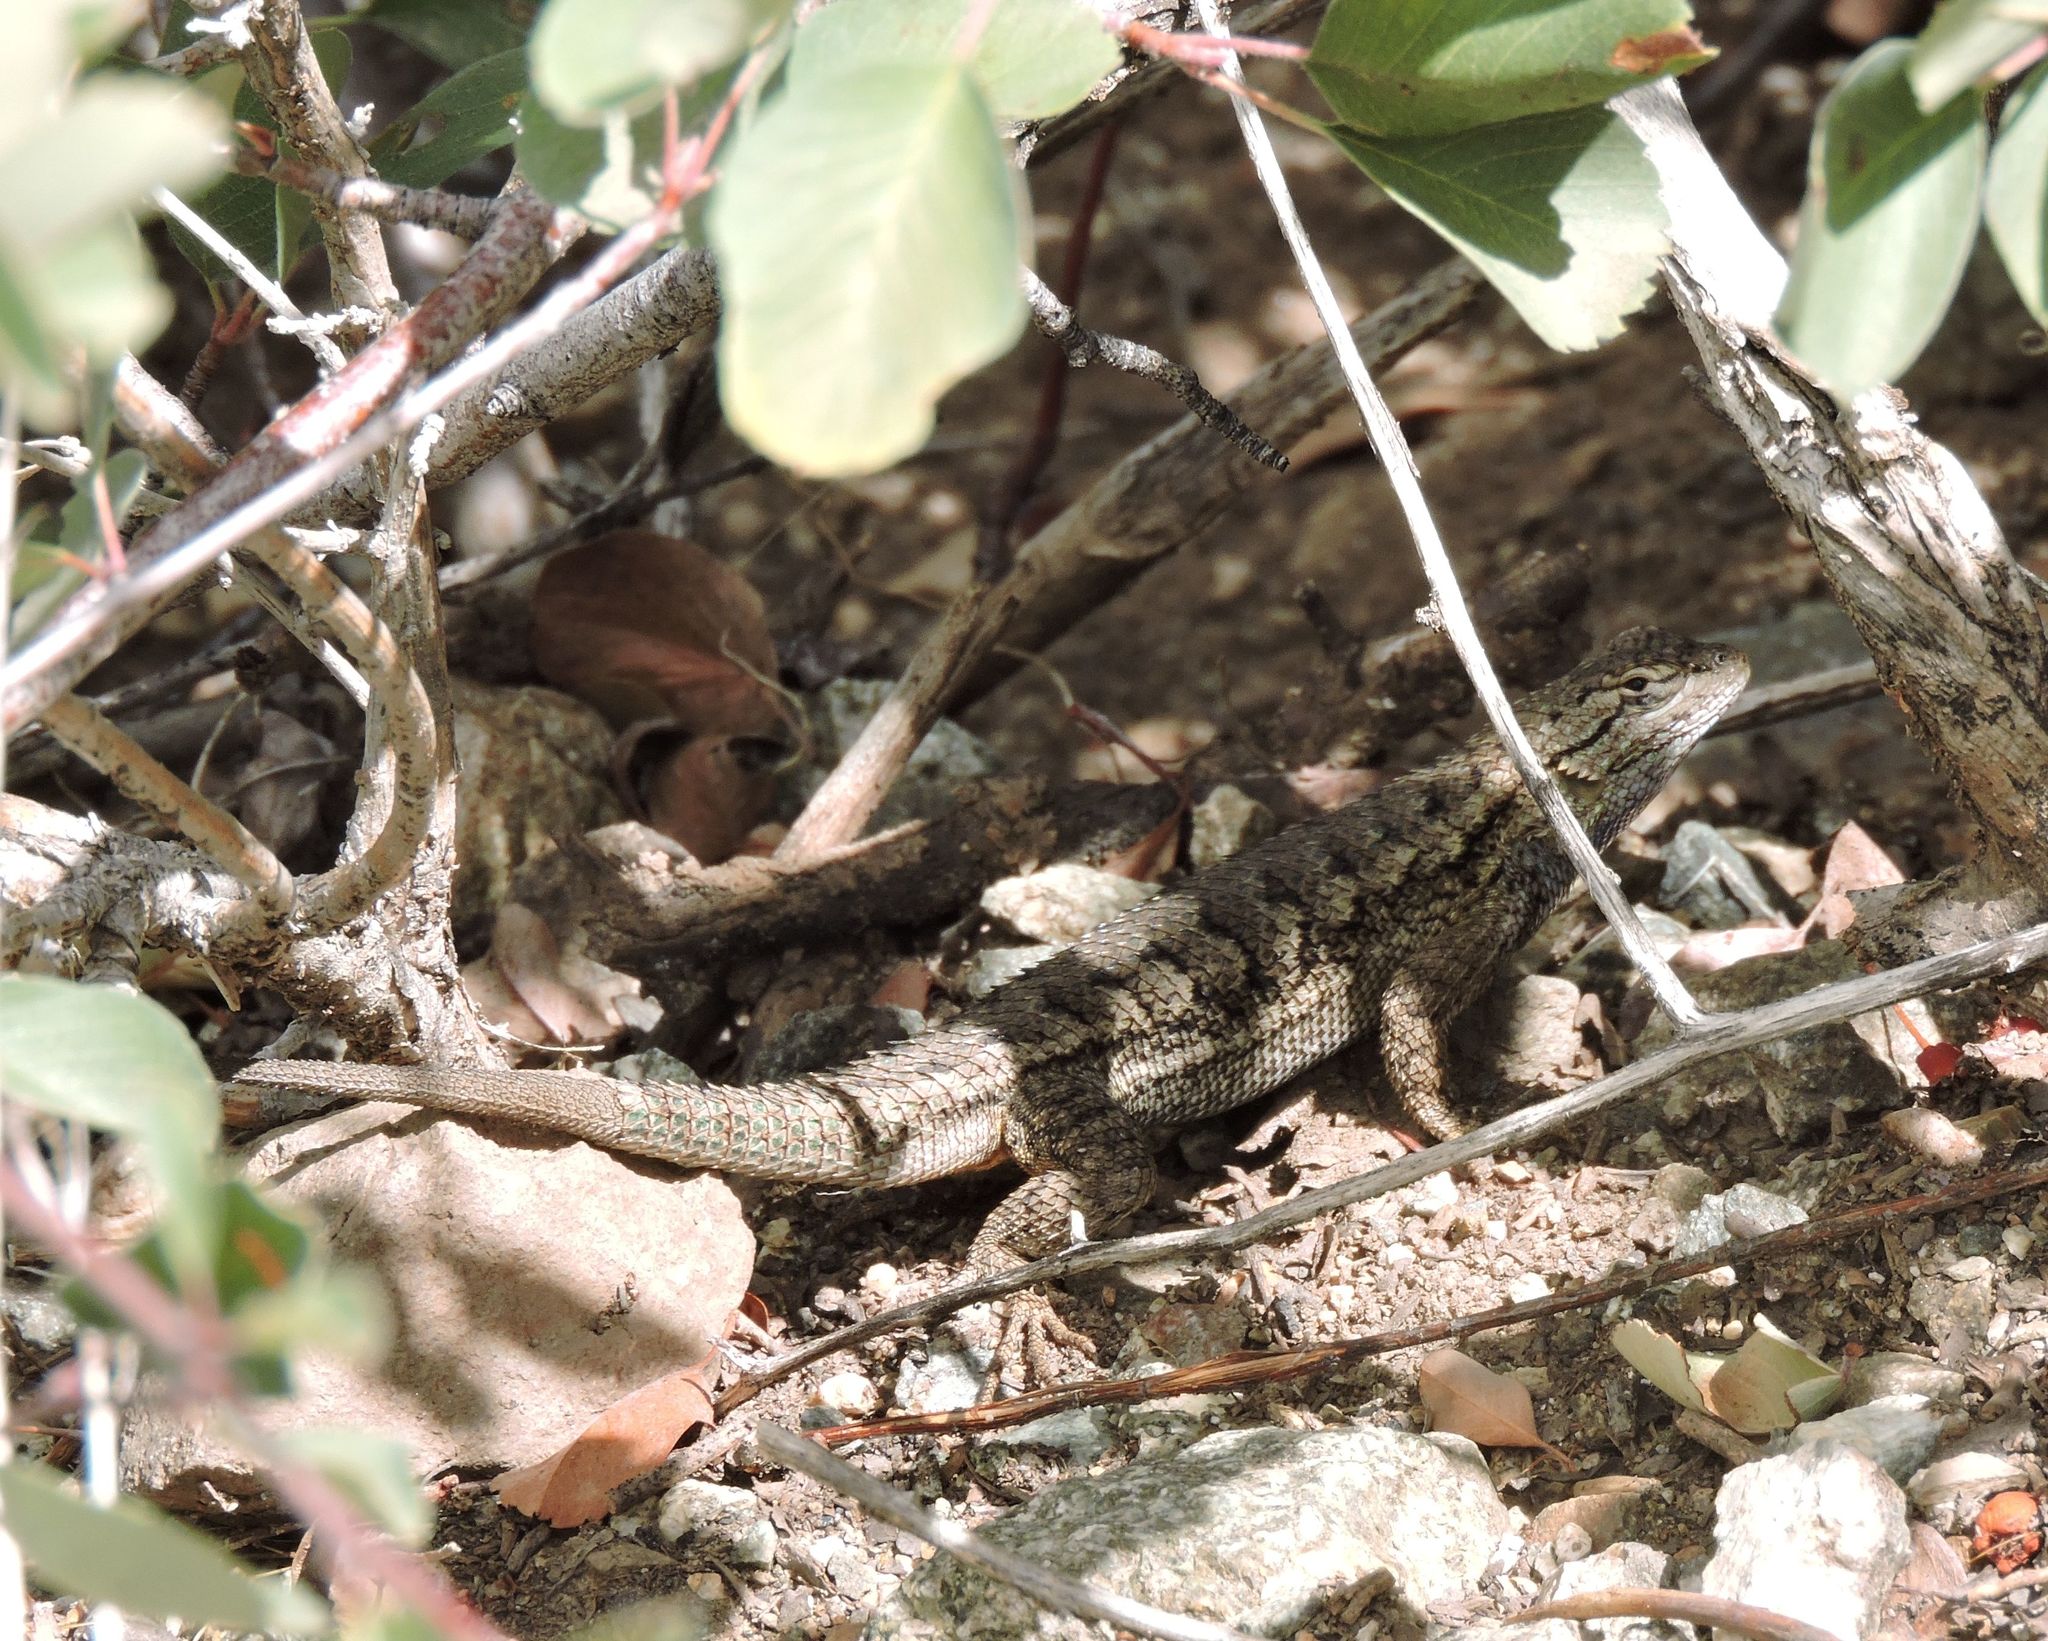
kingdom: Animalia
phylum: Chordata
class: Squamata
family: Phrynosomatidae
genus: Sceloporus
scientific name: Sceloporus occidentalis
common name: Western fence lizard
